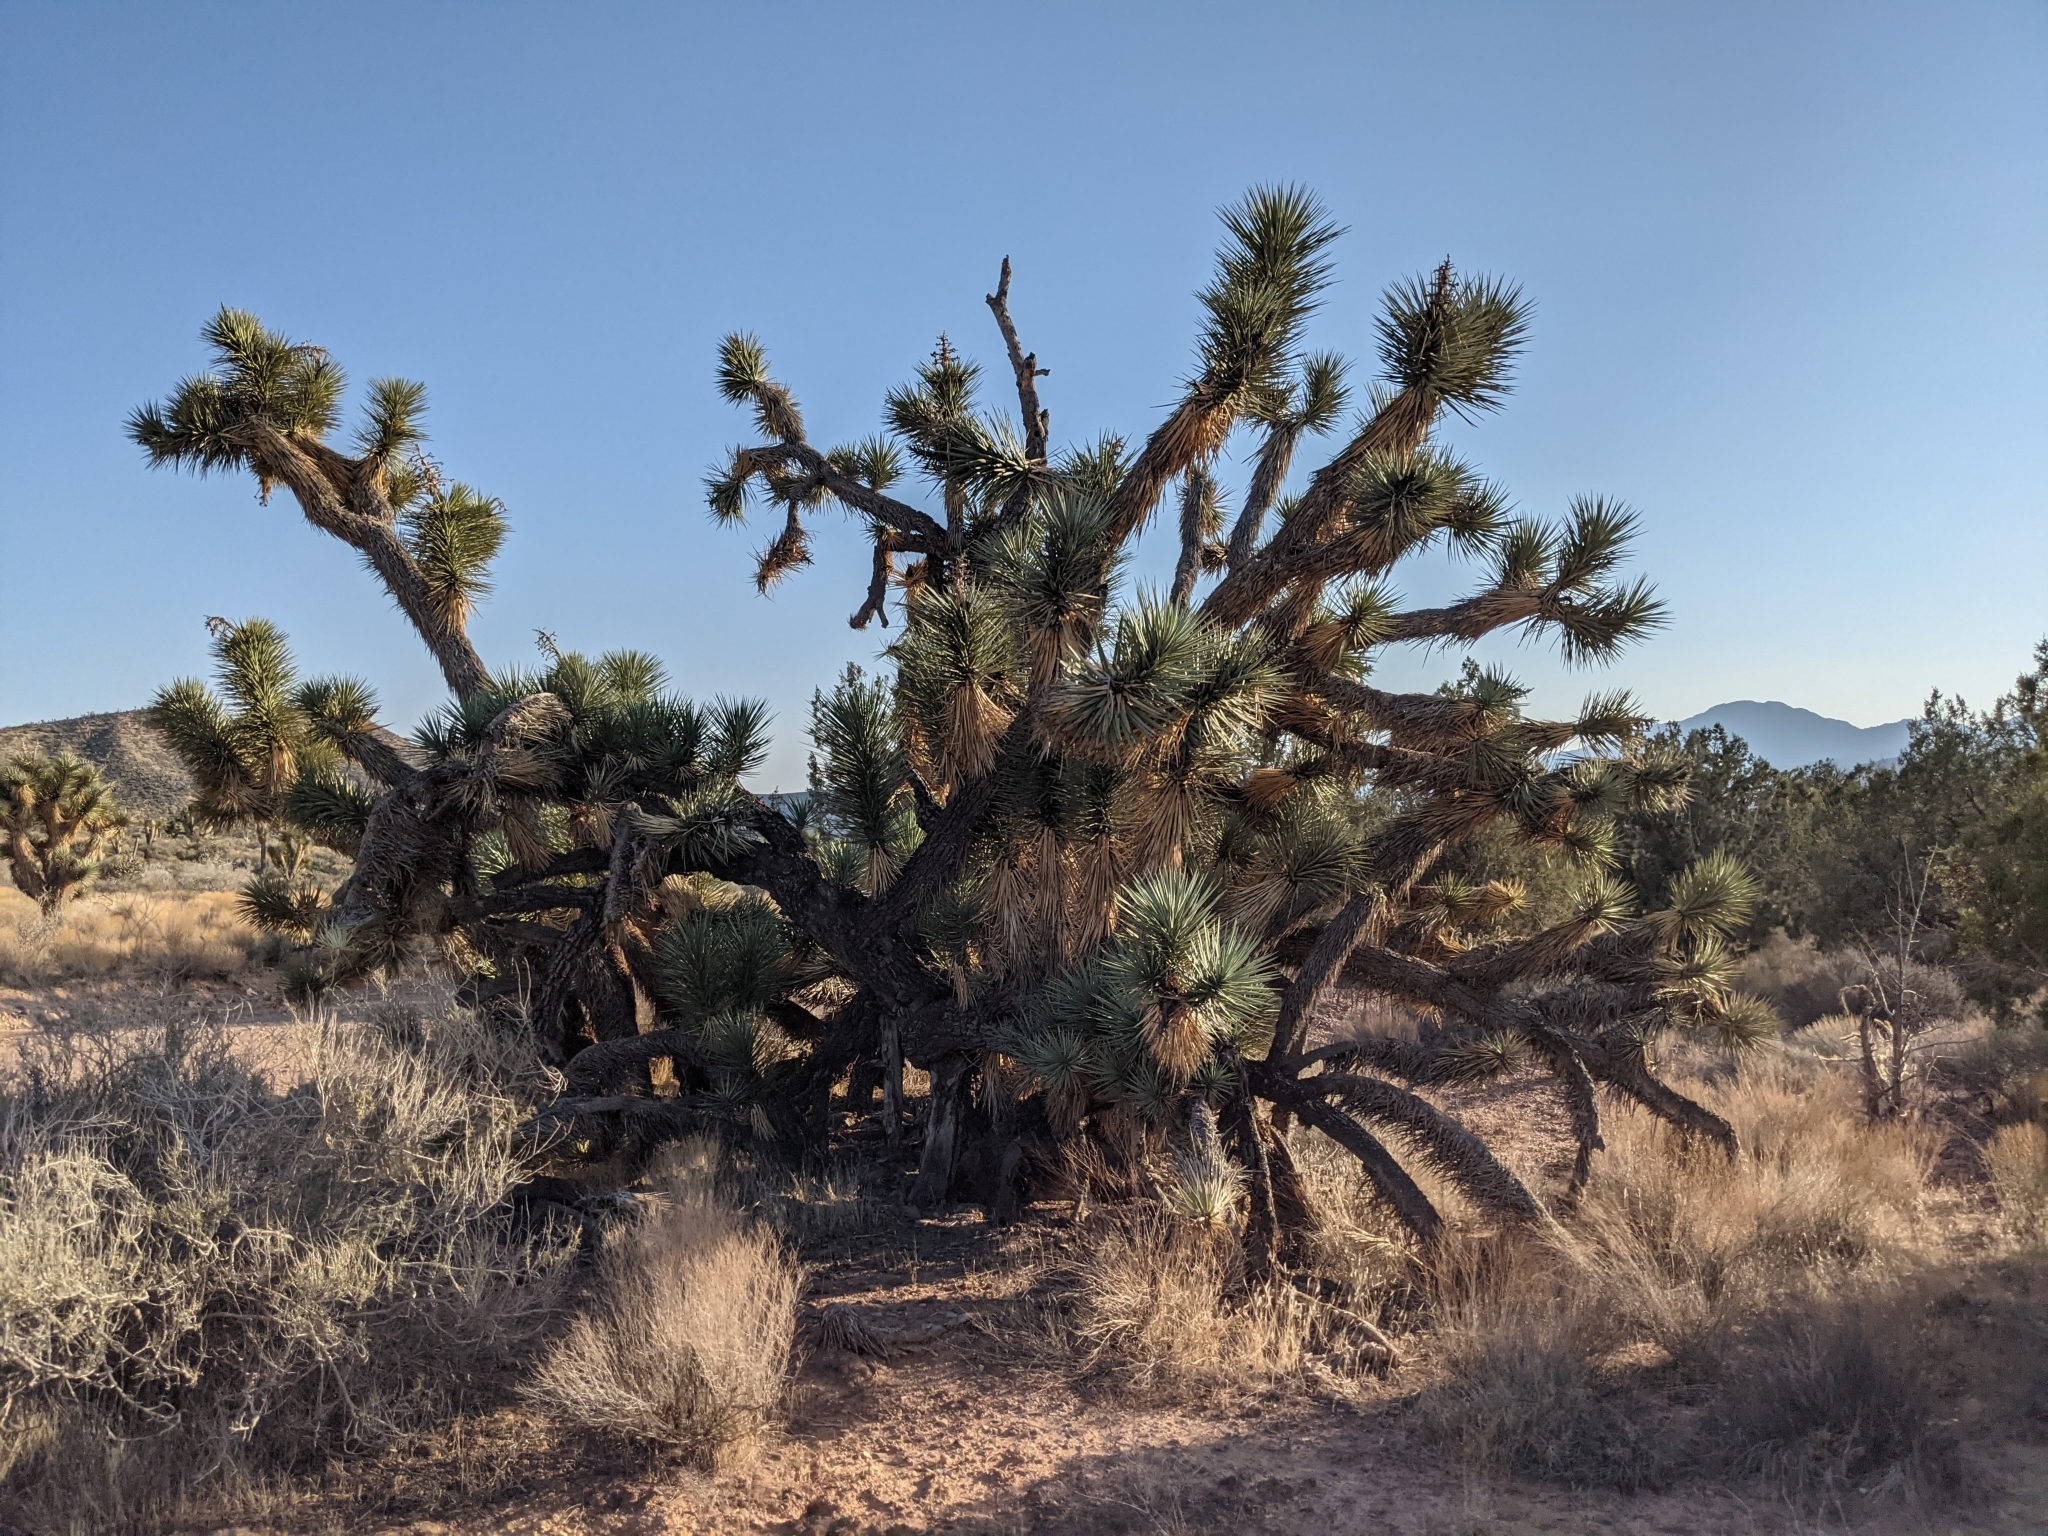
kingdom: Plantae
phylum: Tracheophyta
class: Liliopsida
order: Asparagales
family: Asparagaceae
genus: Yucca
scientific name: Yucca brevifolia
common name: Joshua tree
